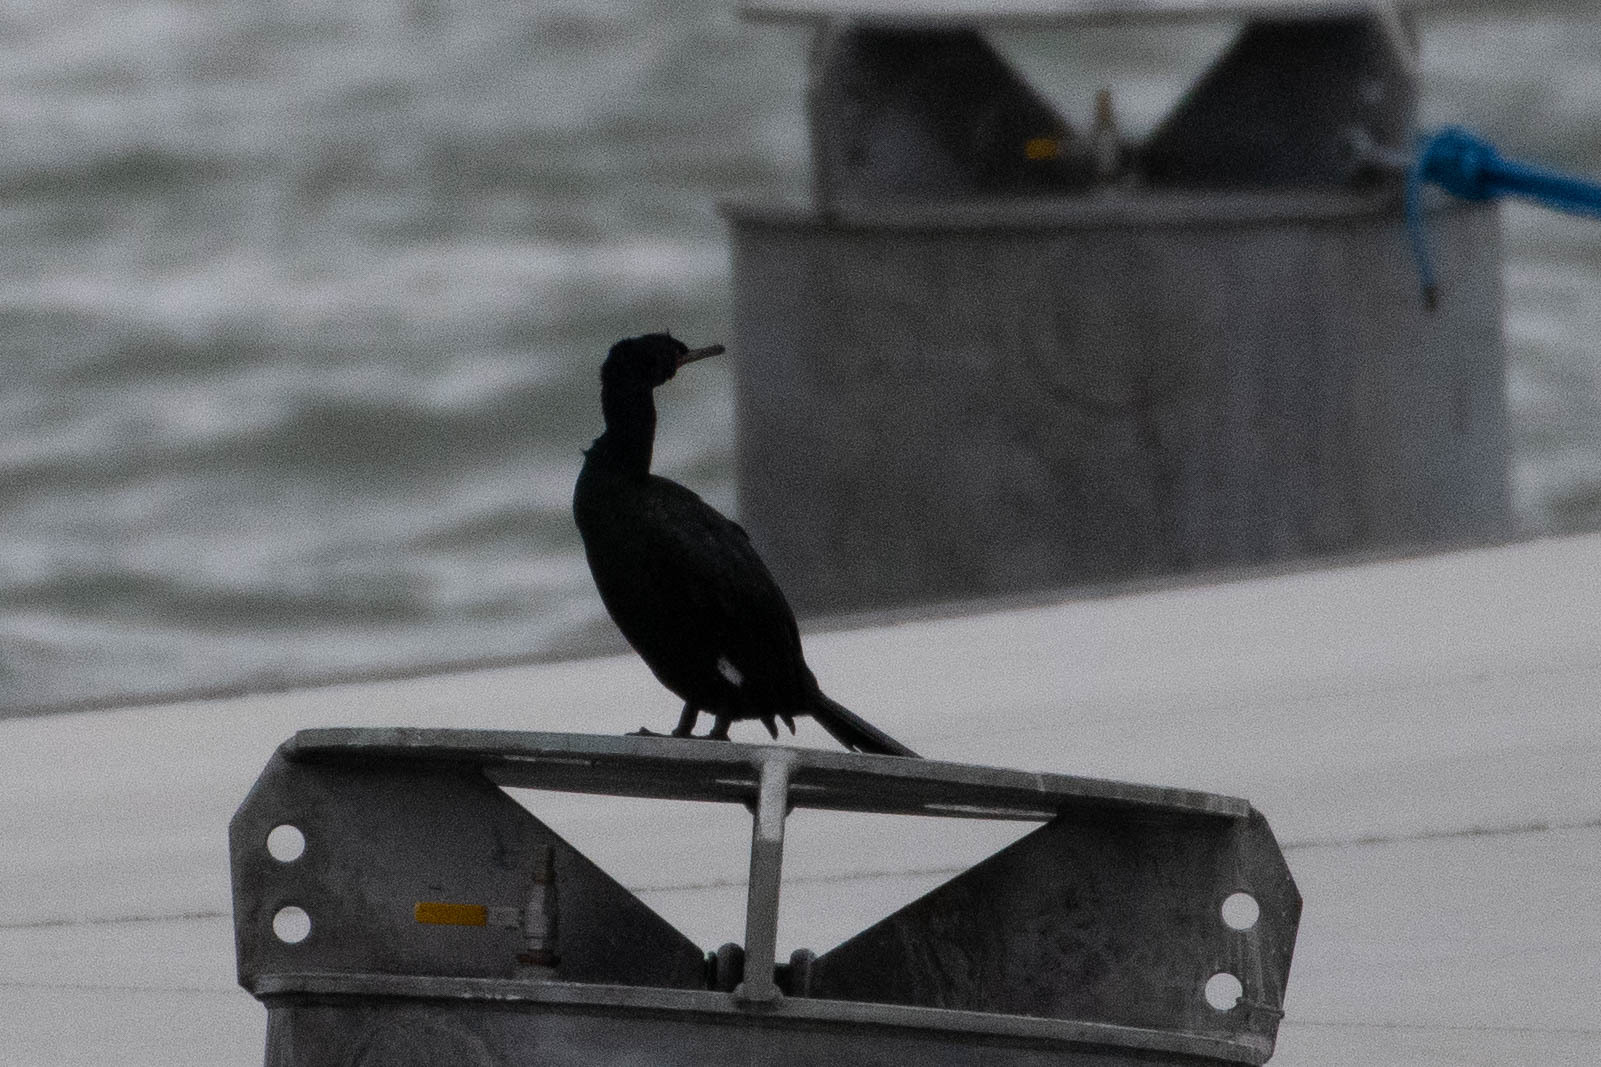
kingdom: Animalia
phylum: Chordata
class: Aves
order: Suliformes
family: Phalacrocoracidae
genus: Phalacrocorax
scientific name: Phalacrocorax pelagicus
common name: Pelagic cormorant
